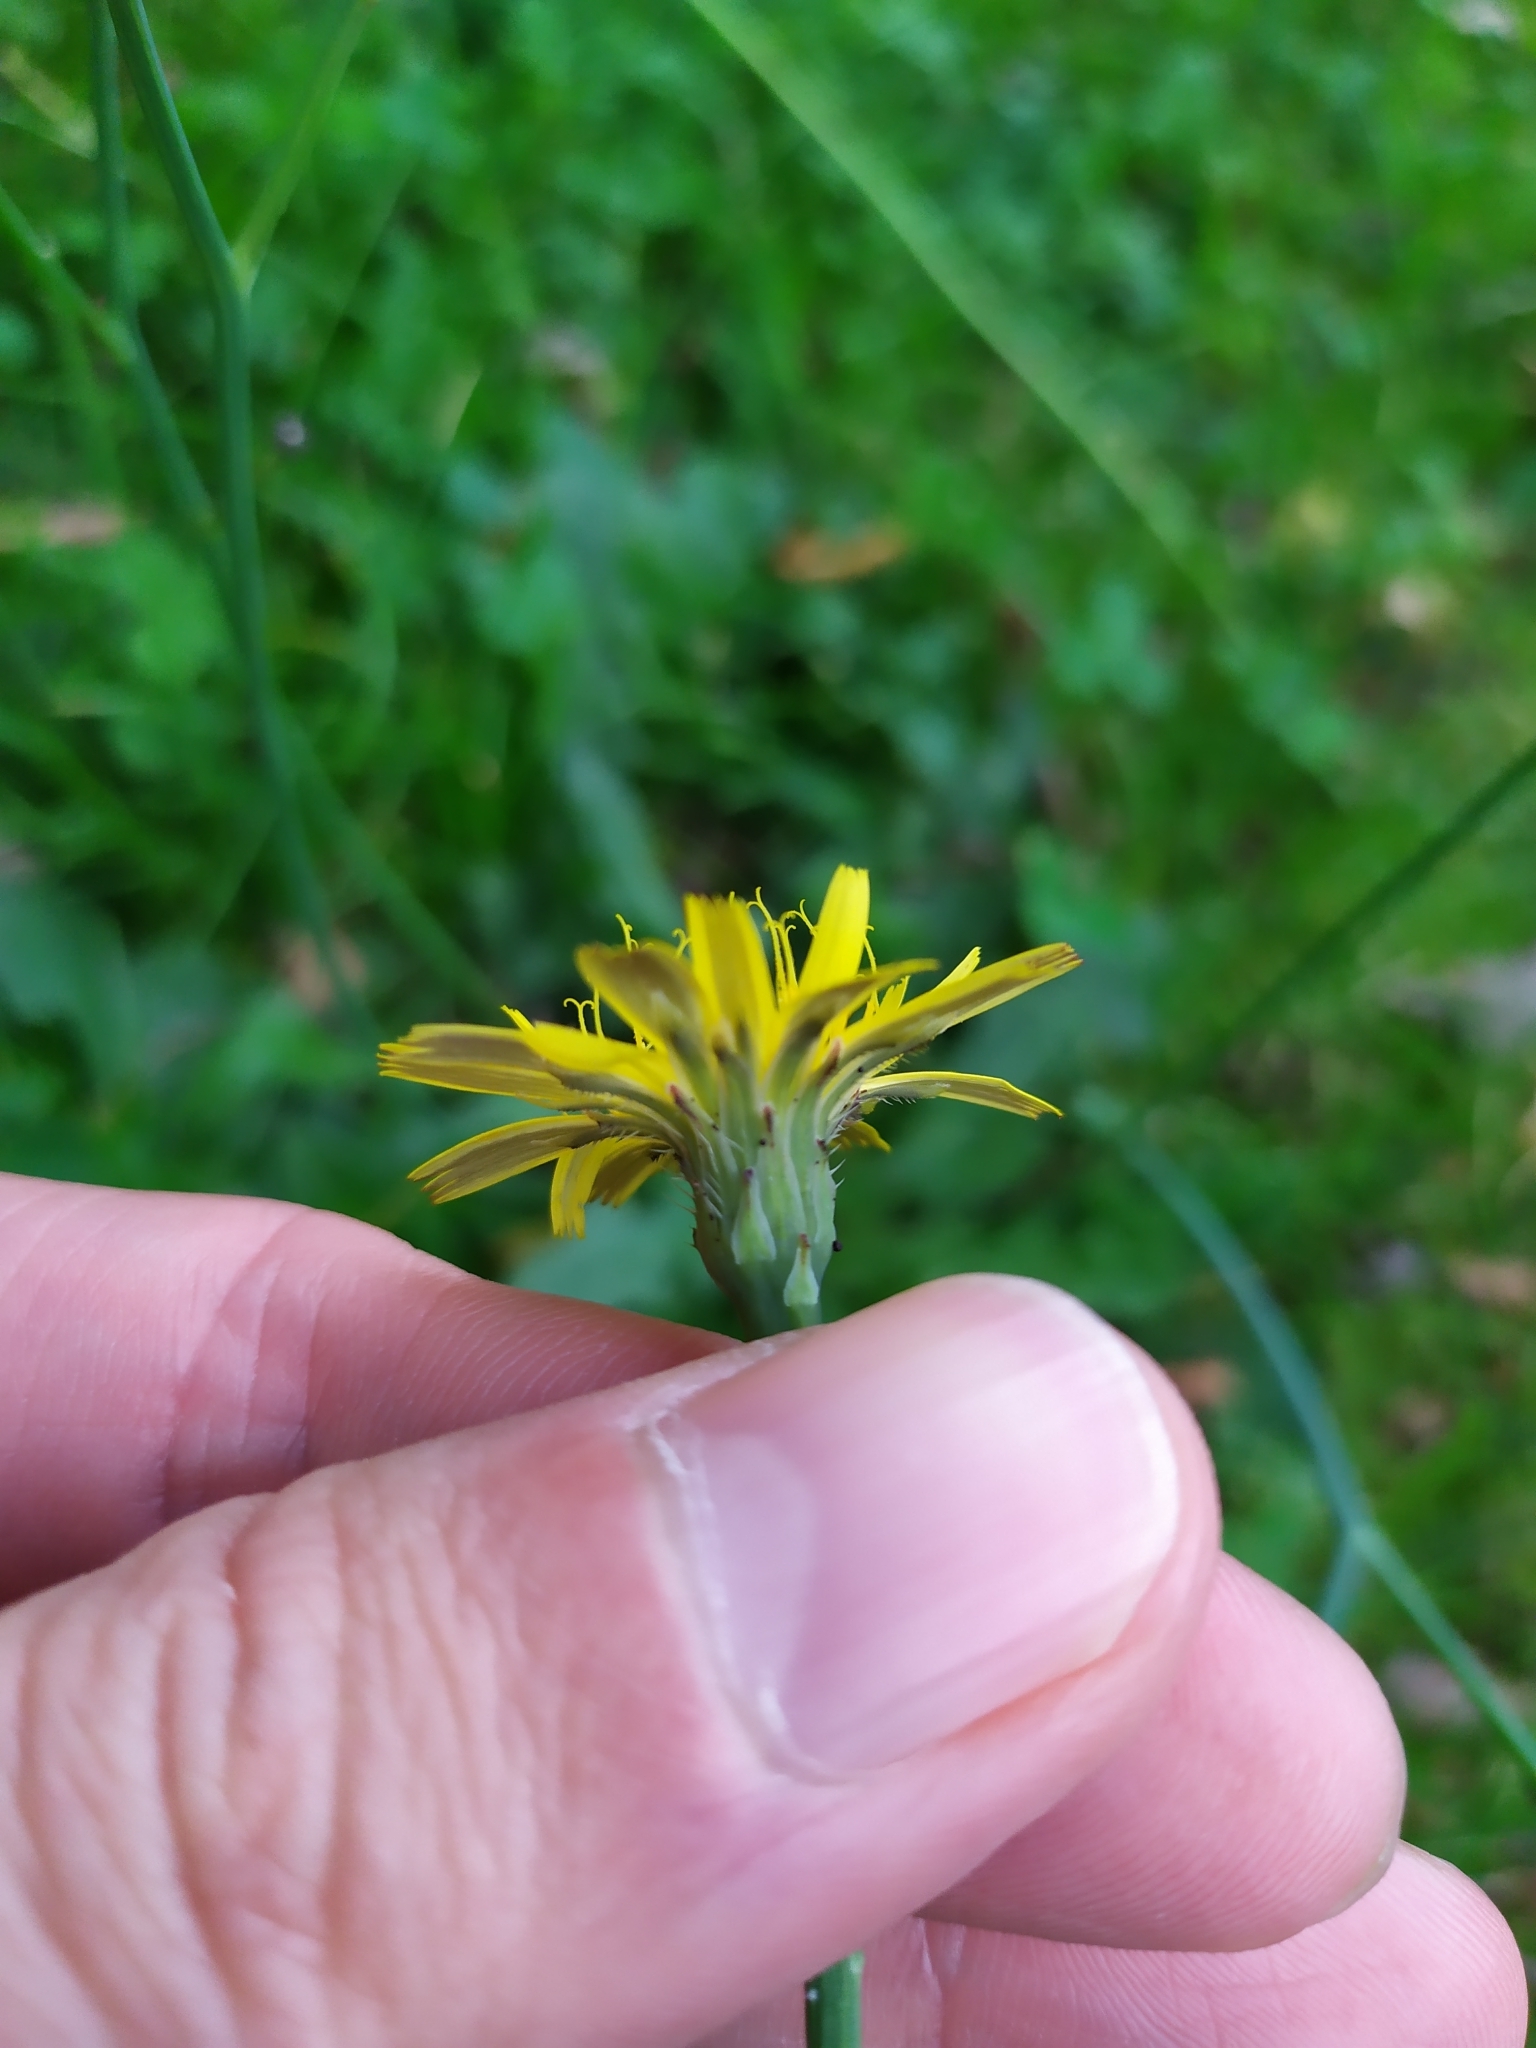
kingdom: Plantae
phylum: Tracheophyta
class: Magnoliopsida
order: Asterales
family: Asteraceae
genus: Hypochaeris
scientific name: Hypochaeris radicata
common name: Flatweed
